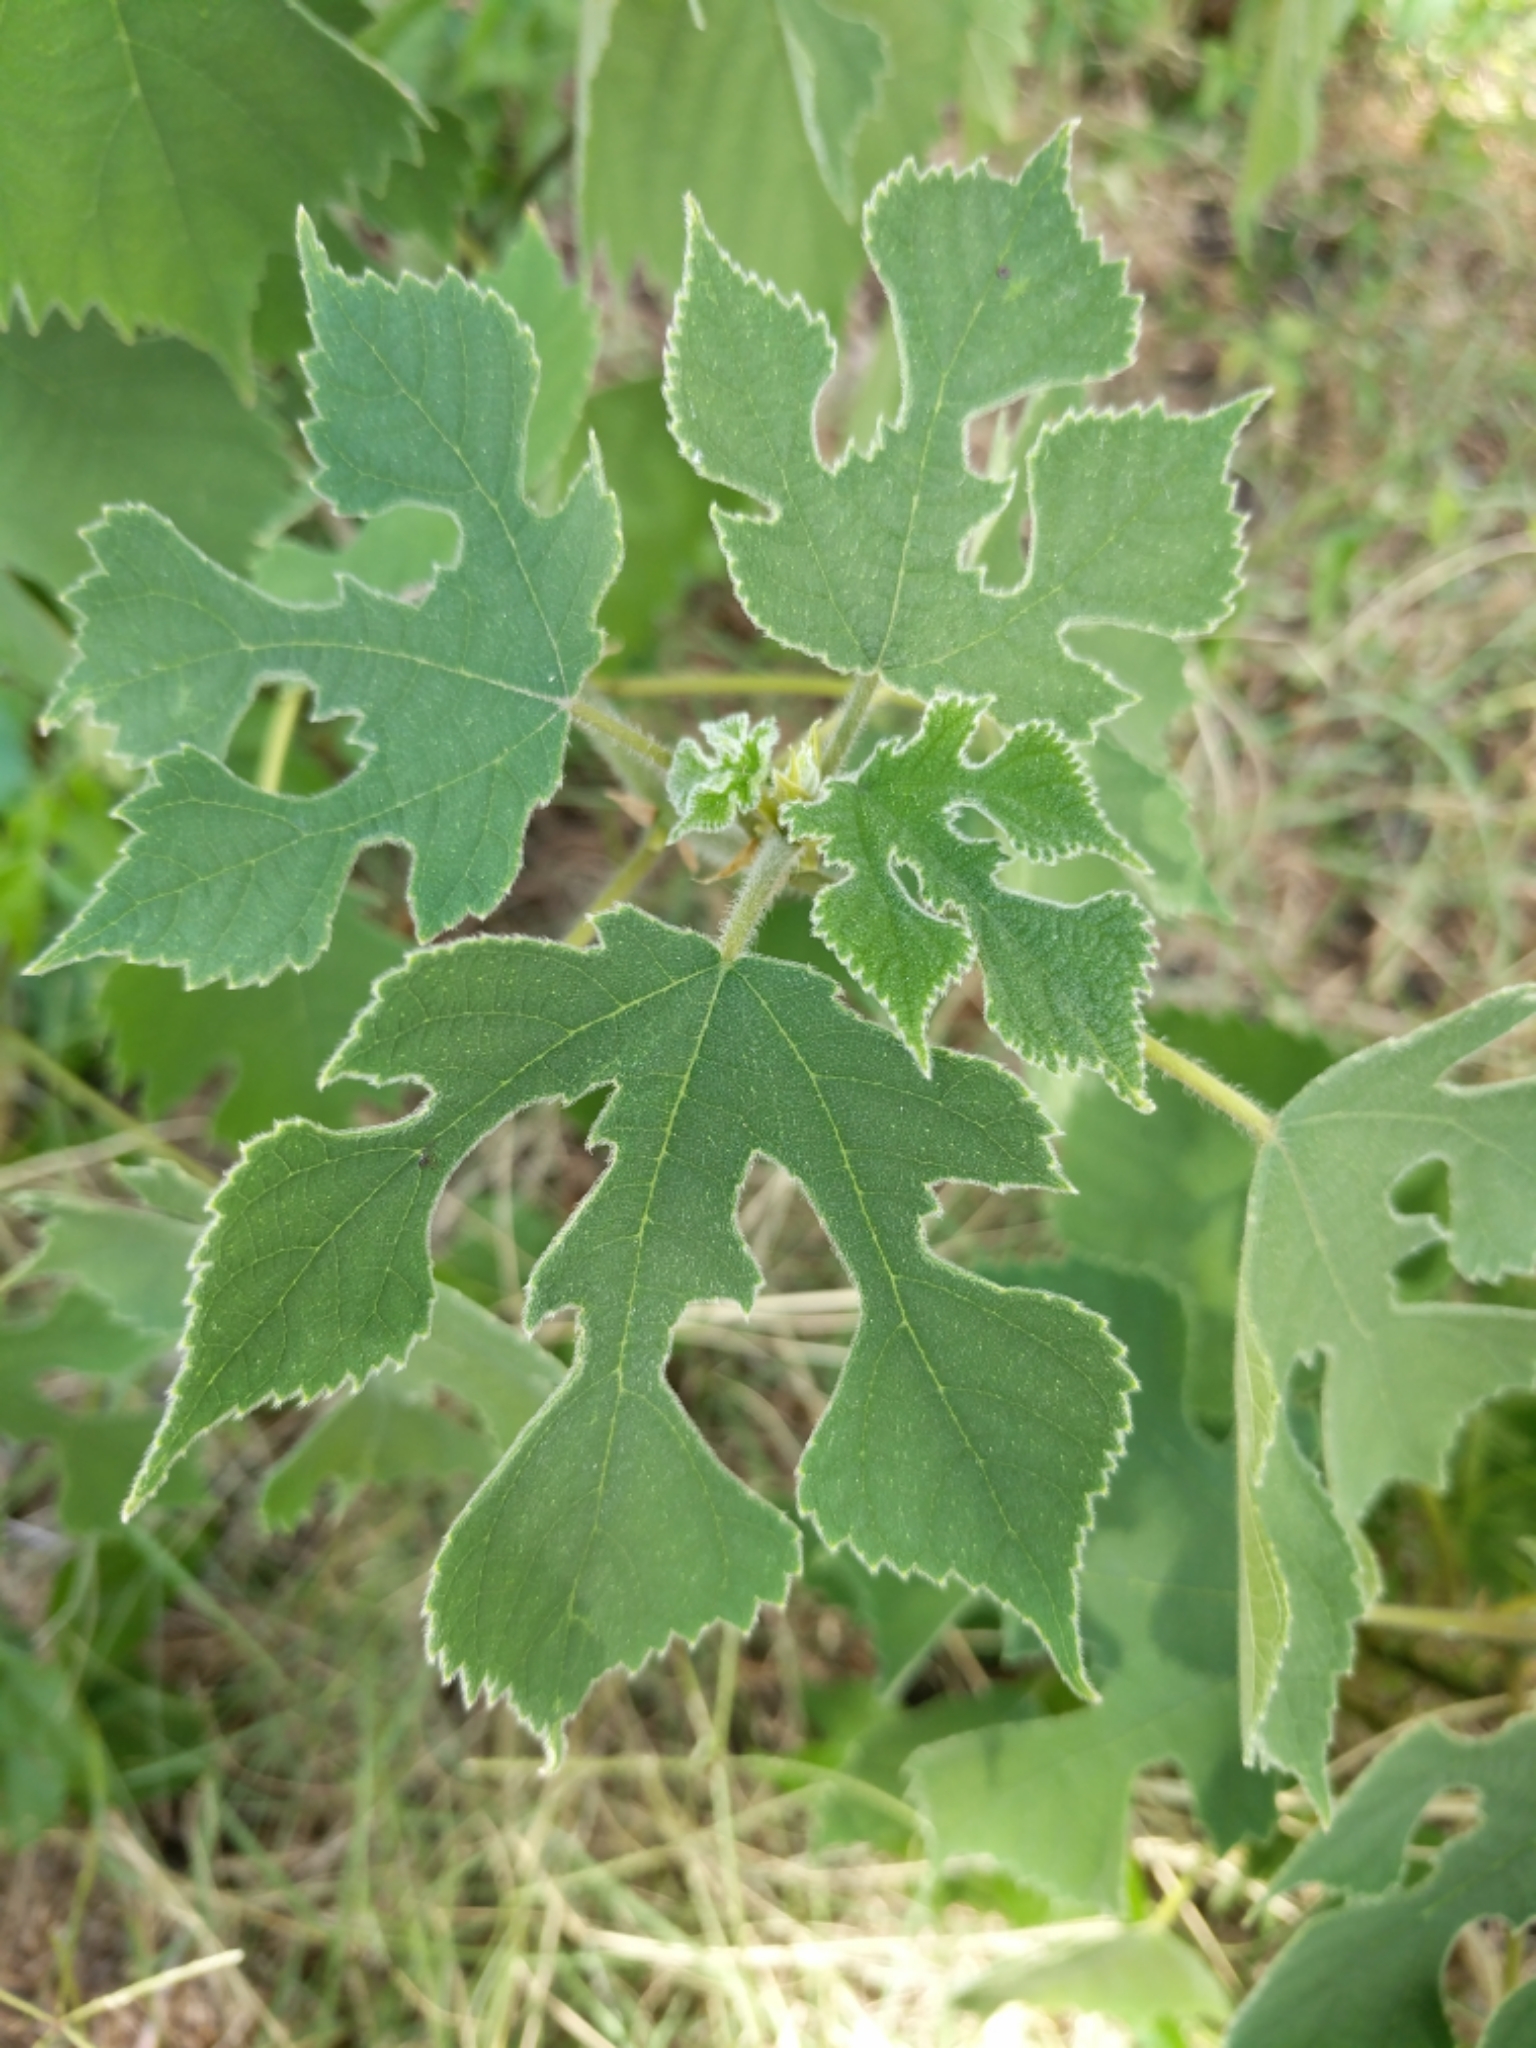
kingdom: Plantae
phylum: Tracheophyta
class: Magnoliopsida
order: Rosales
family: Moraceae
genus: Broussonetia
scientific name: Broussonetia papyrifera
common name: Paper mulberry
